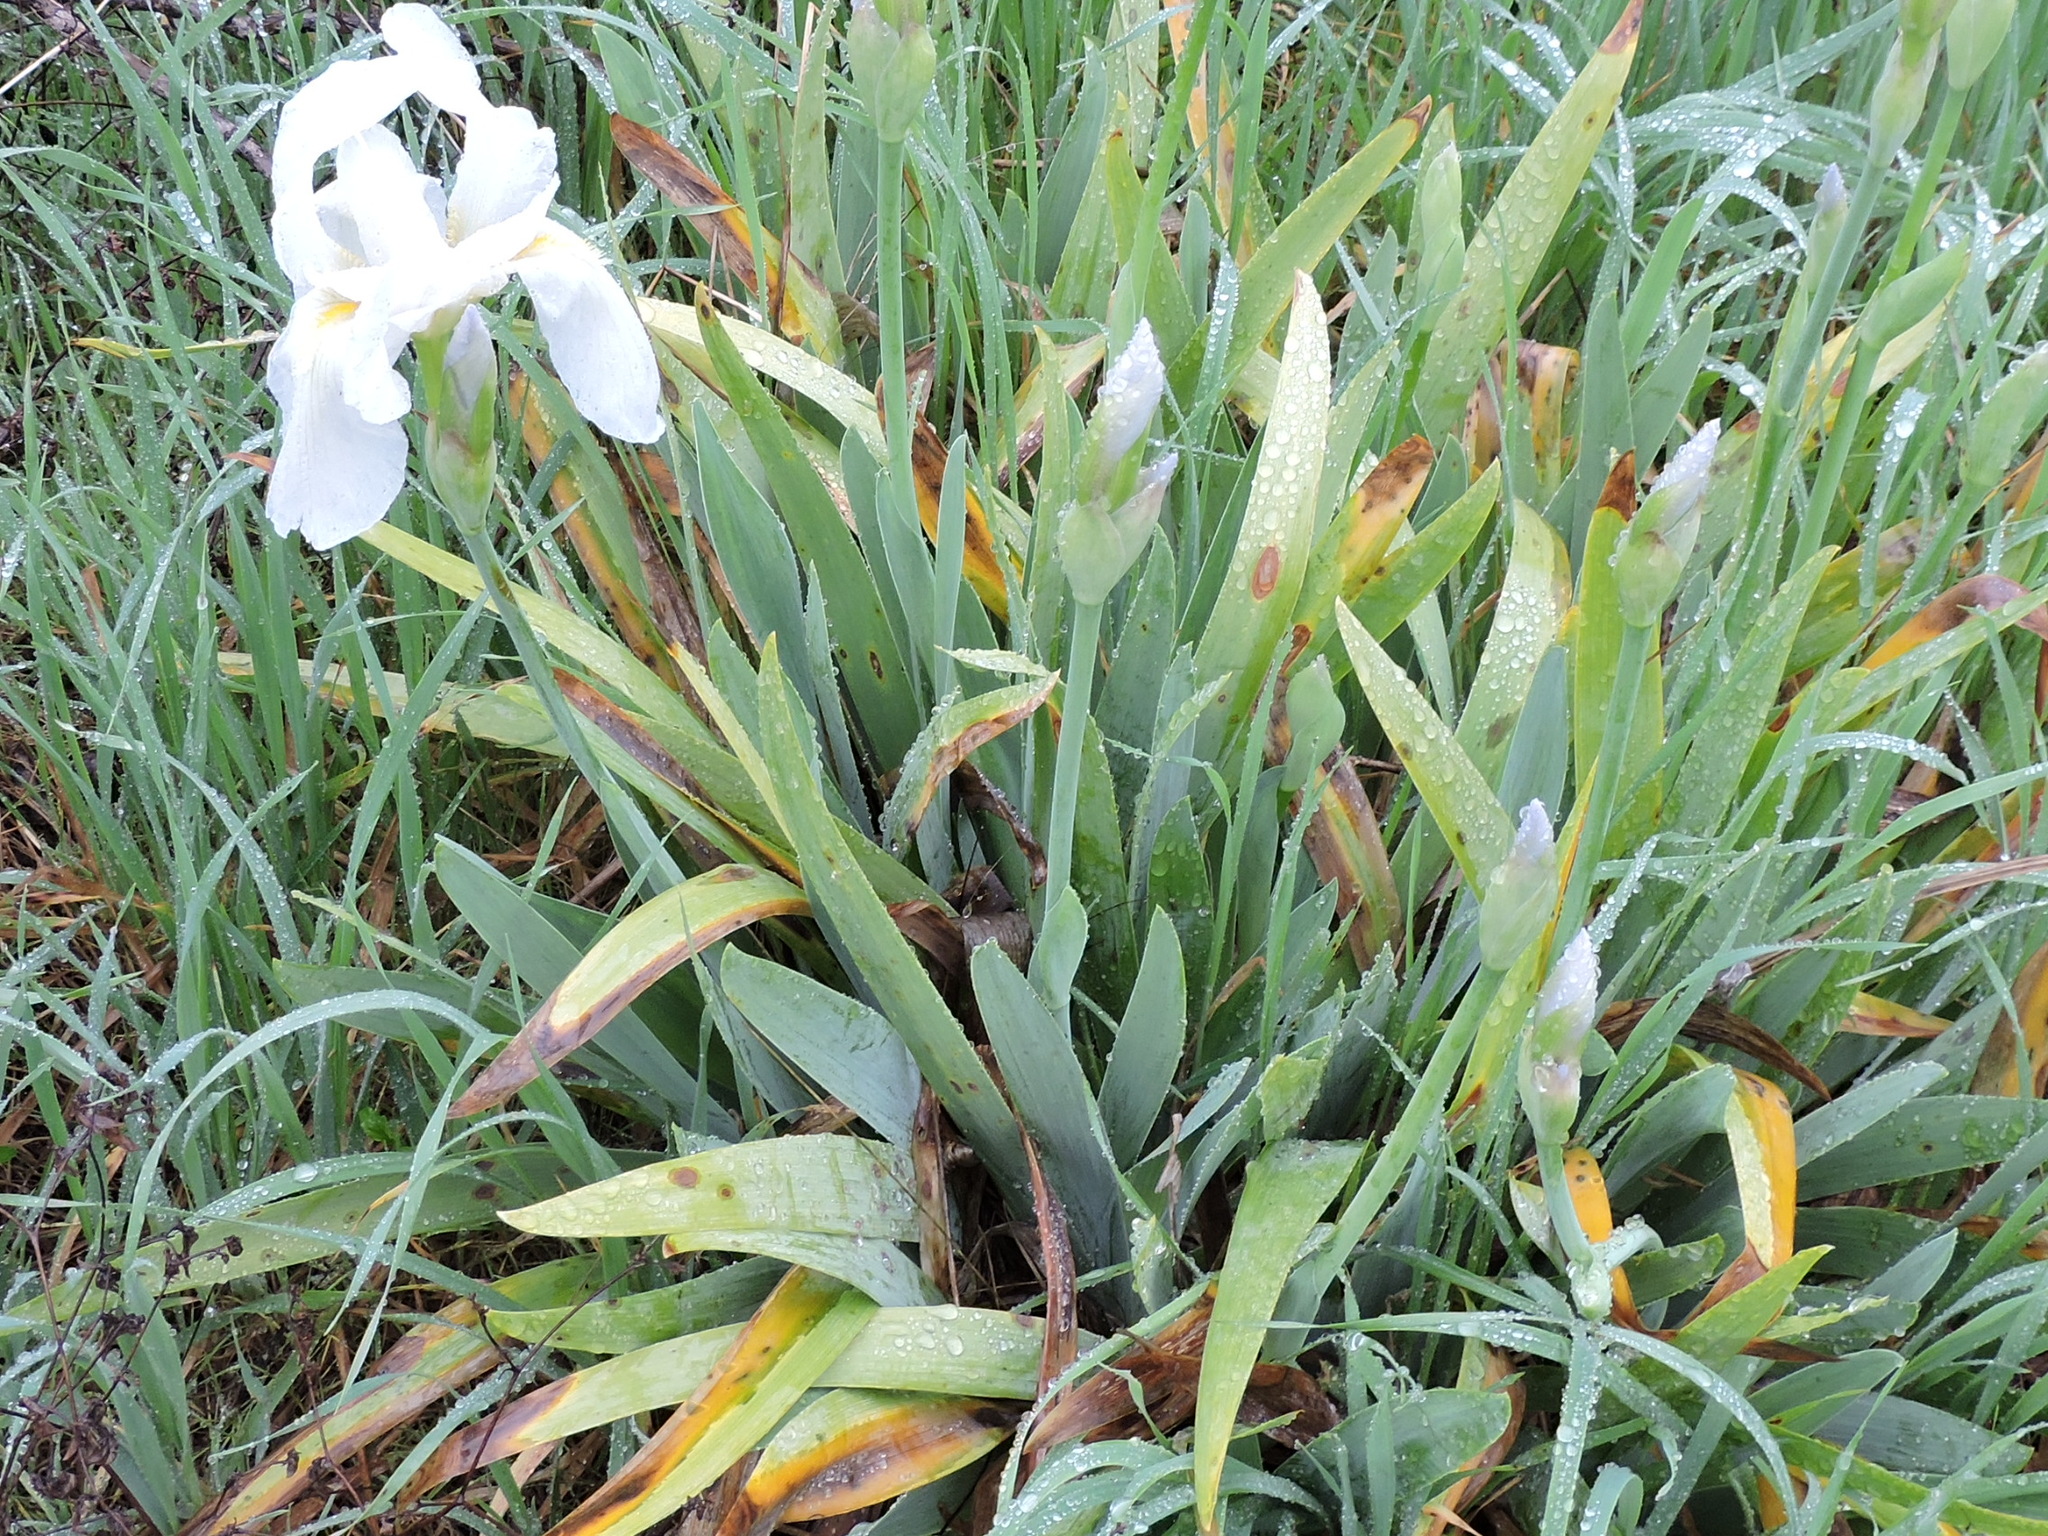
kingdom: Plantae
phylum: Tracheophyta
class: Liliopsida
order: Asparagales
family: Iridaceae
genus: Iris
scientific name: Iris florentina
